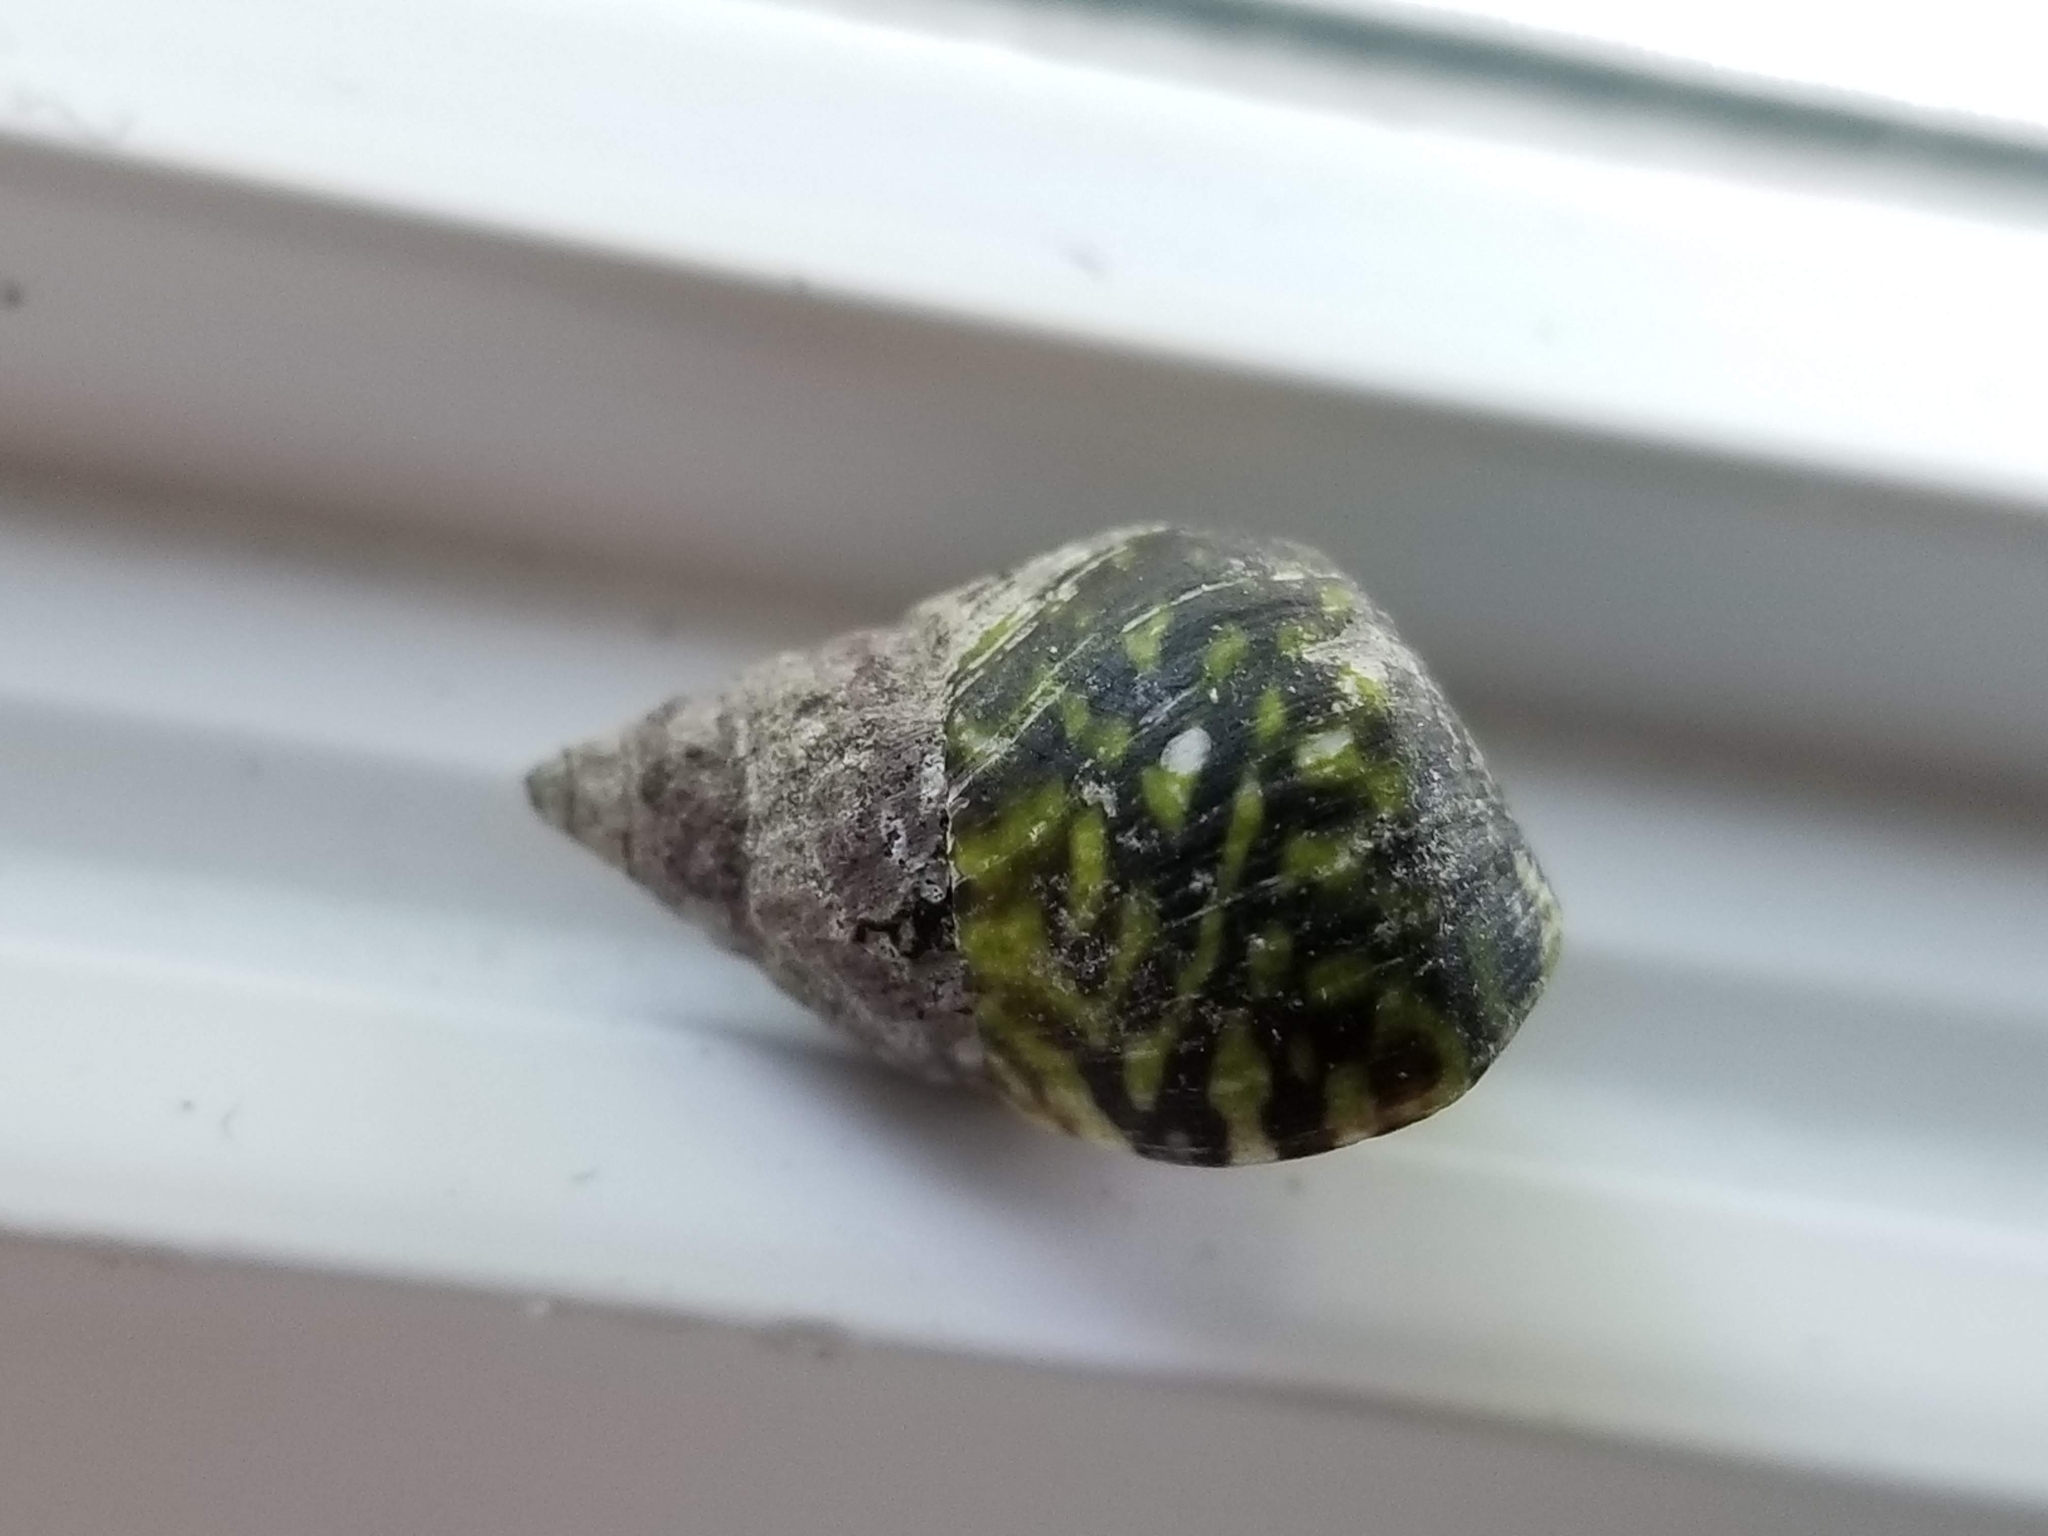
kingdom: Animalia
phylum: Mollusca
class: Gastropoda
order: Littorinimorpha
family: Littorinidae
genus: Littorina
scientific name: Littorina scutulata
